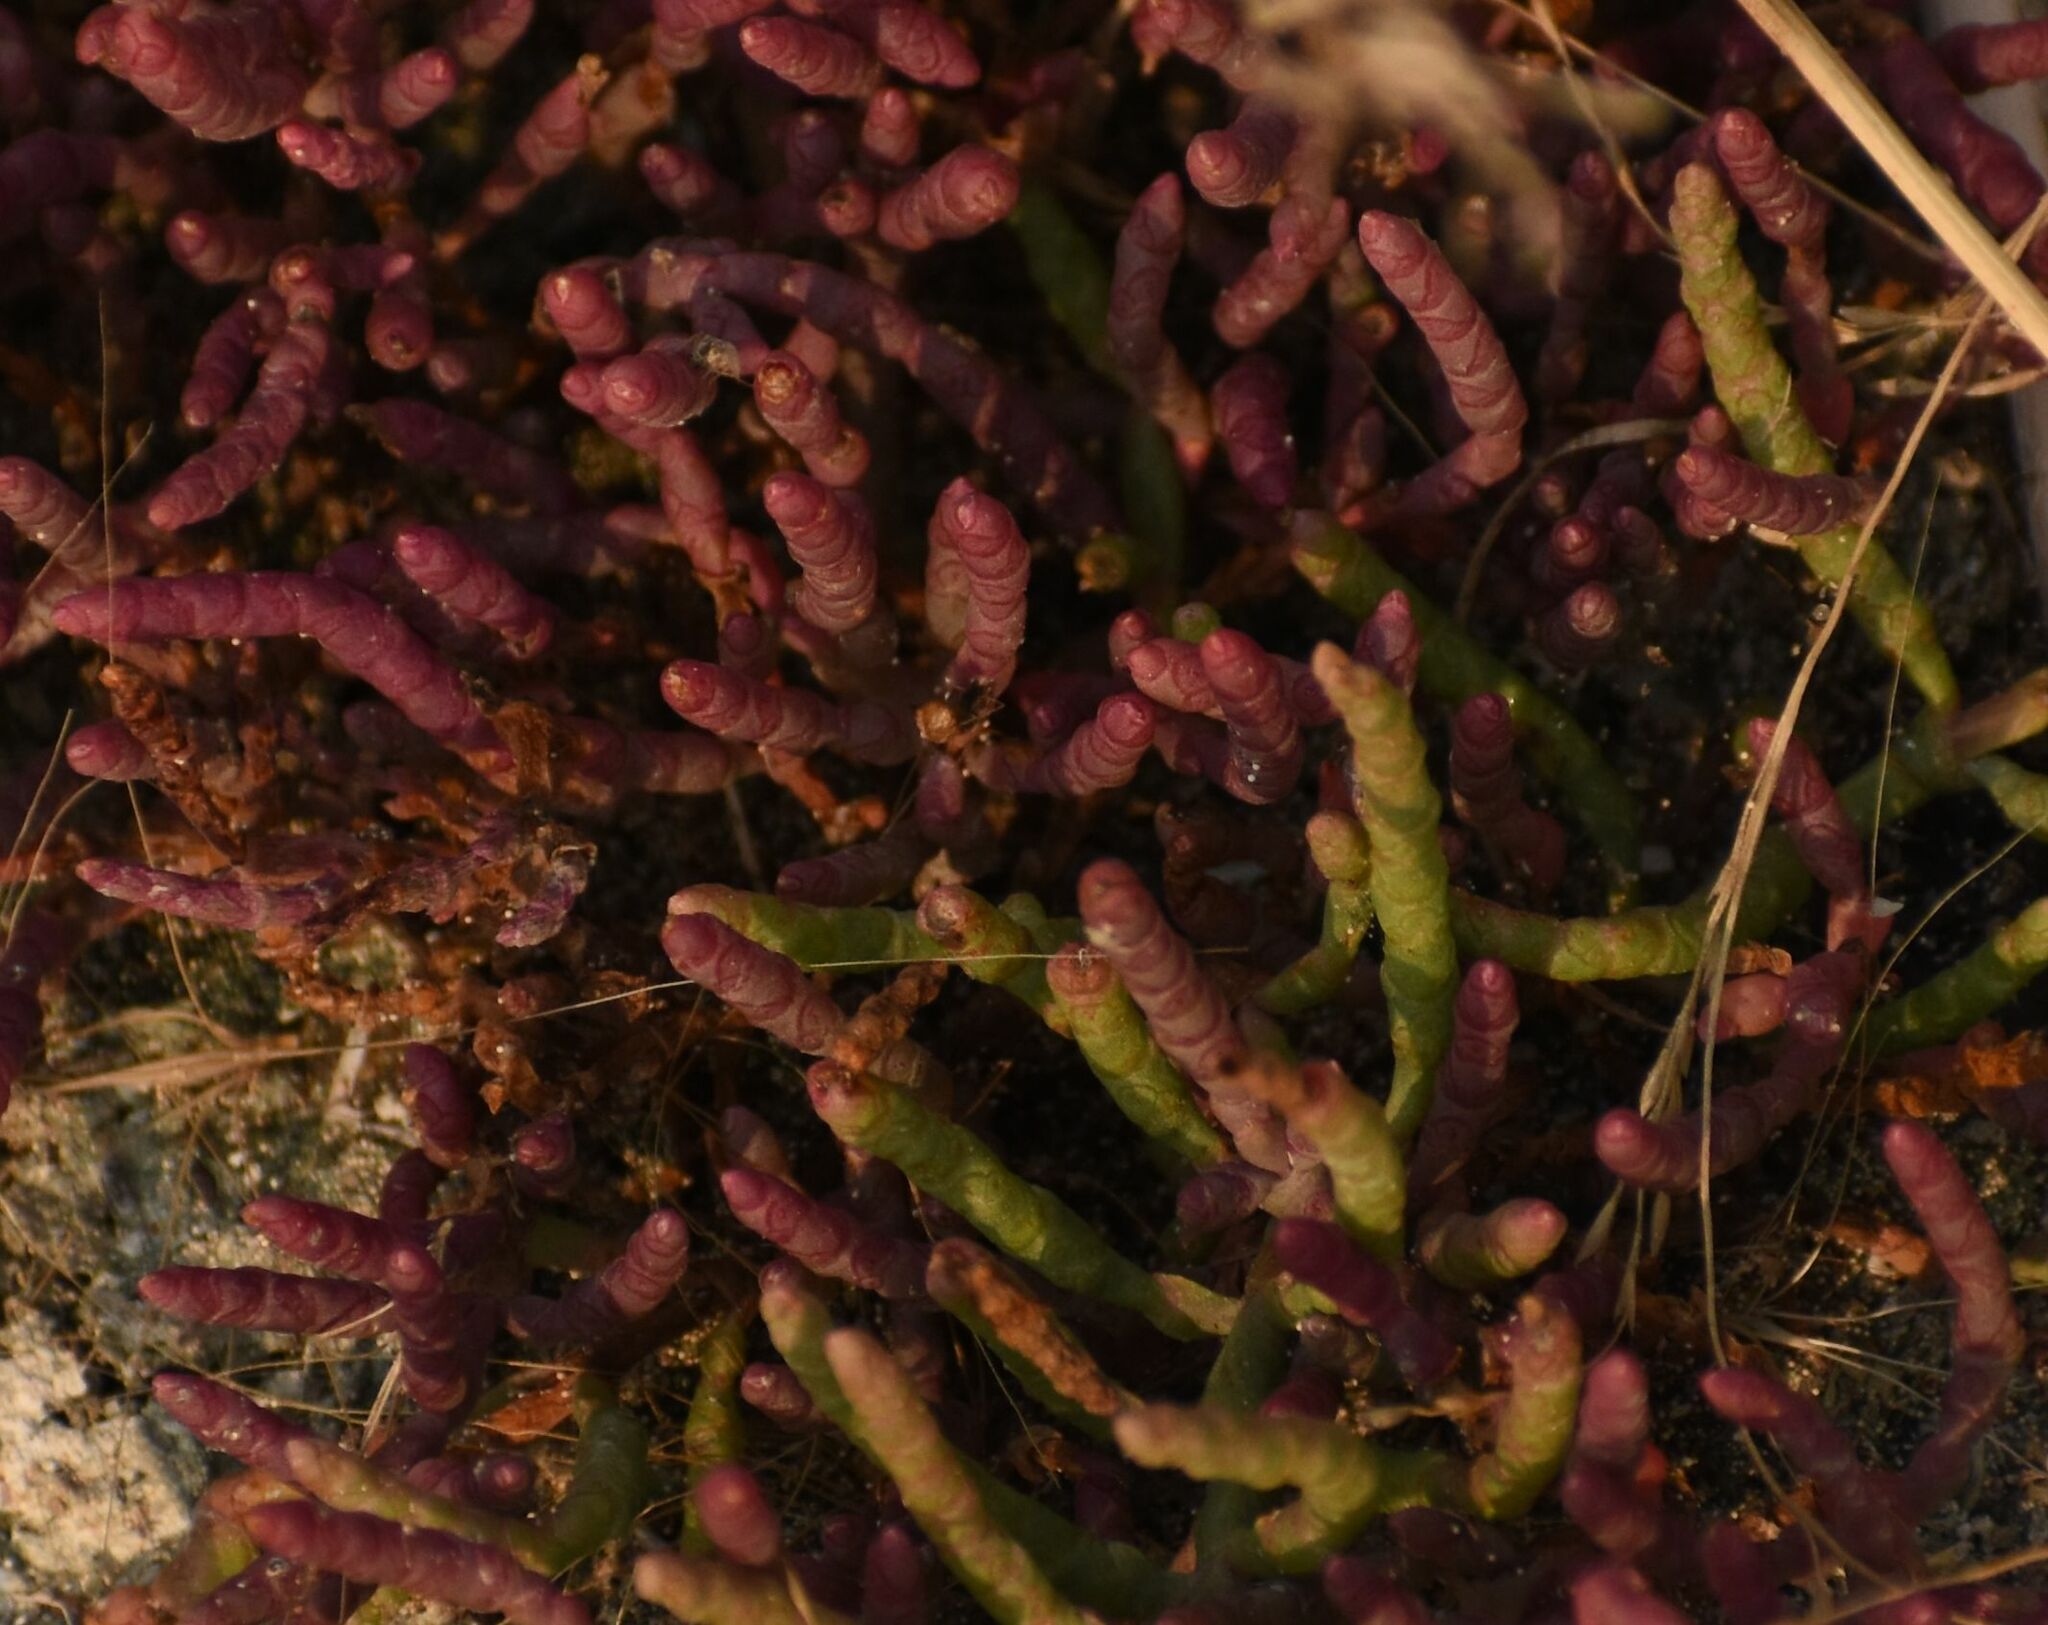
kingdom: Plantae
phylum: Tracheophyta
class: Magnoliopsida
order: Caryophyllales
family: Amaranthaceae
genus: Salicornia
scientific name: Salicornia rubra
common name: Red glasswort
